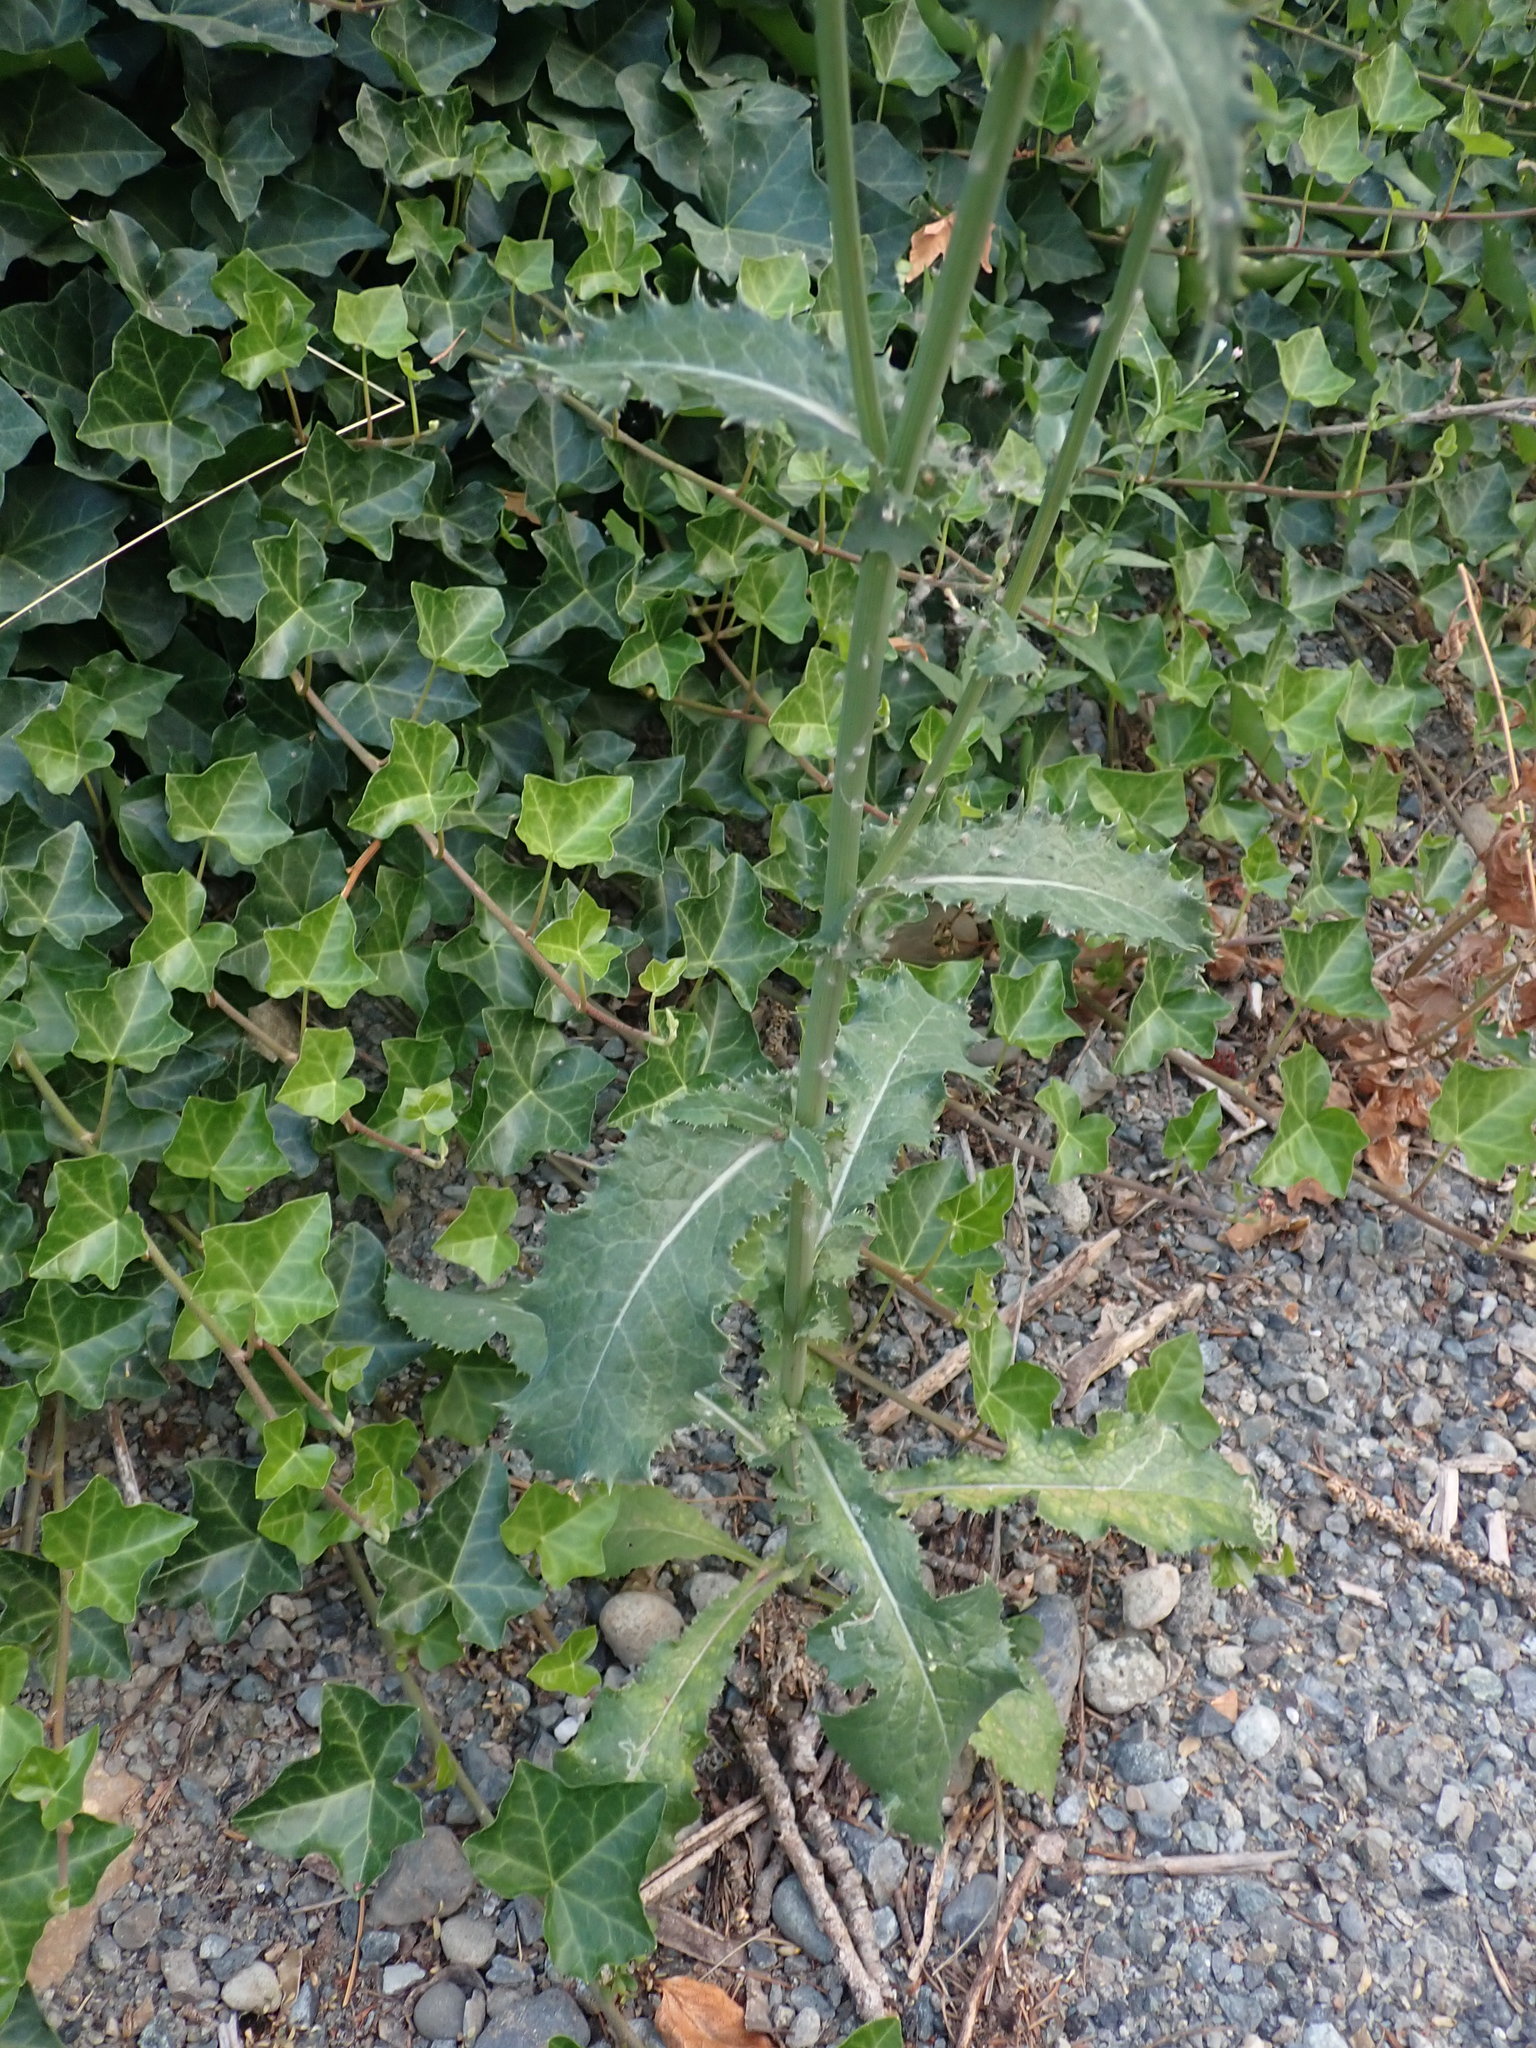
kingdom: Plantae
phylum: Tracheophyta
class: Magnoliopsida
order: Asterales
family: Asteraceae
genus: Sonchus
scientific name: Sonchus oleraceus
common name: Common sowthistle
